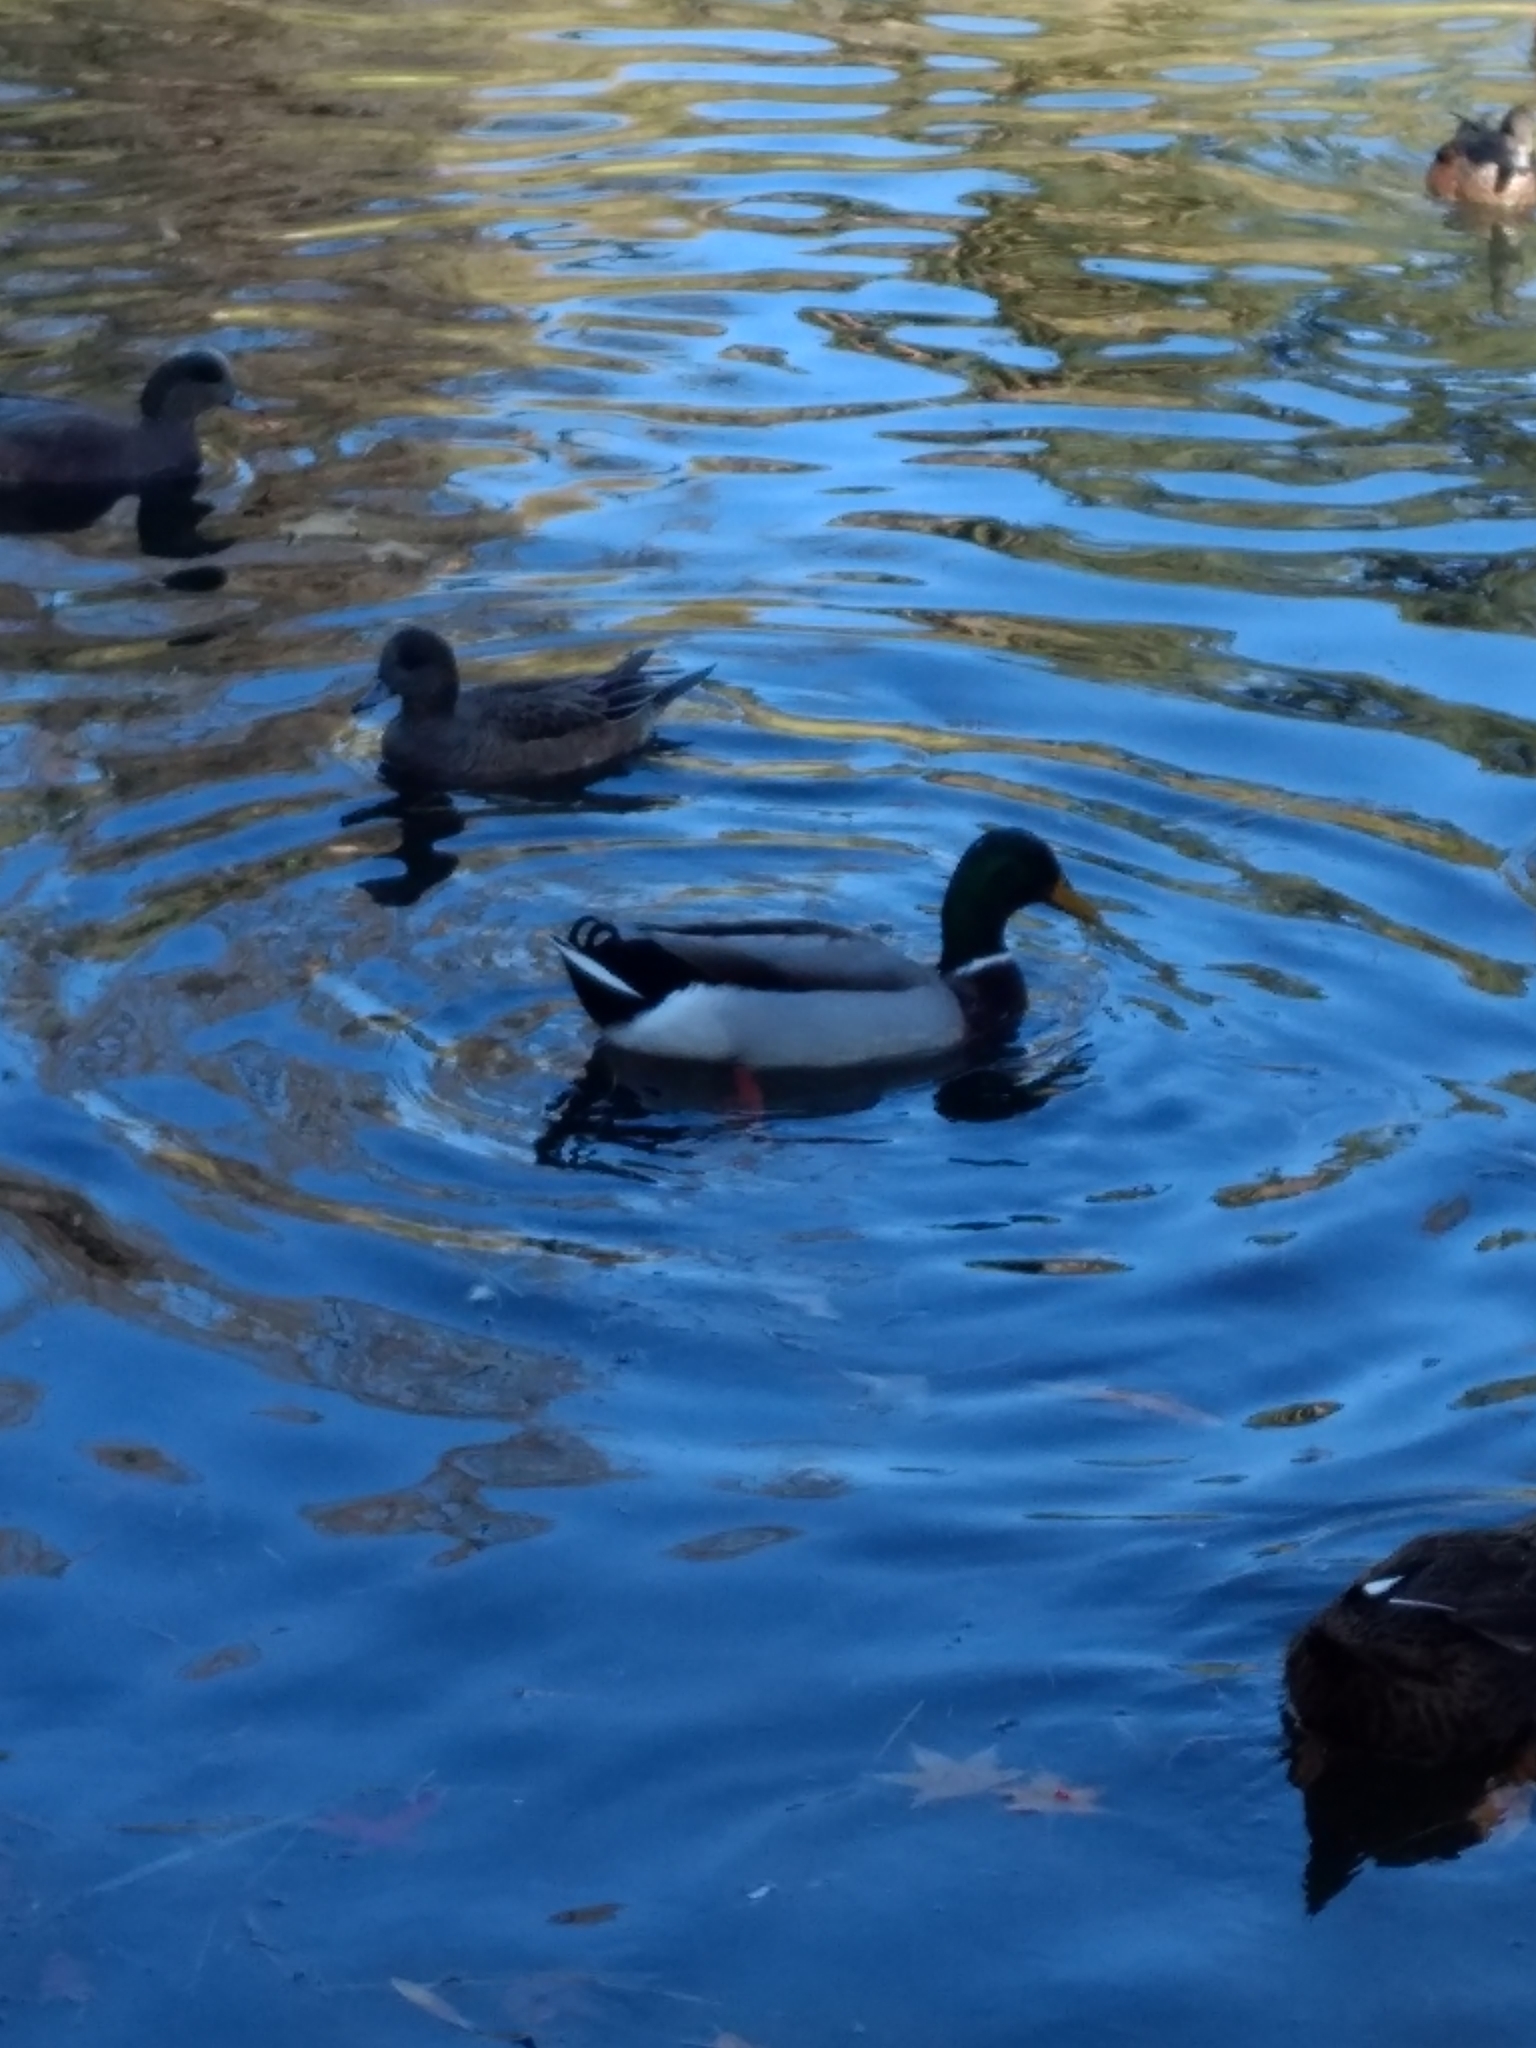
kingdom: Animalia
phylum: Chordata
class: Aves
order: Anseriformes
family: Anatidae
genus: Anas
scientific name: Anas platyrhynchos
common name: Mallard
